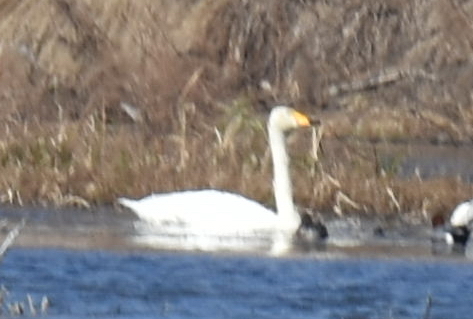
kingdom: Animalia
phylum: Chordata
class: Aves
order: Anseriformes
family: Anatidae
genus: Cygnus
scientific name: Cygnus cygnus
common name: Whooper swan
